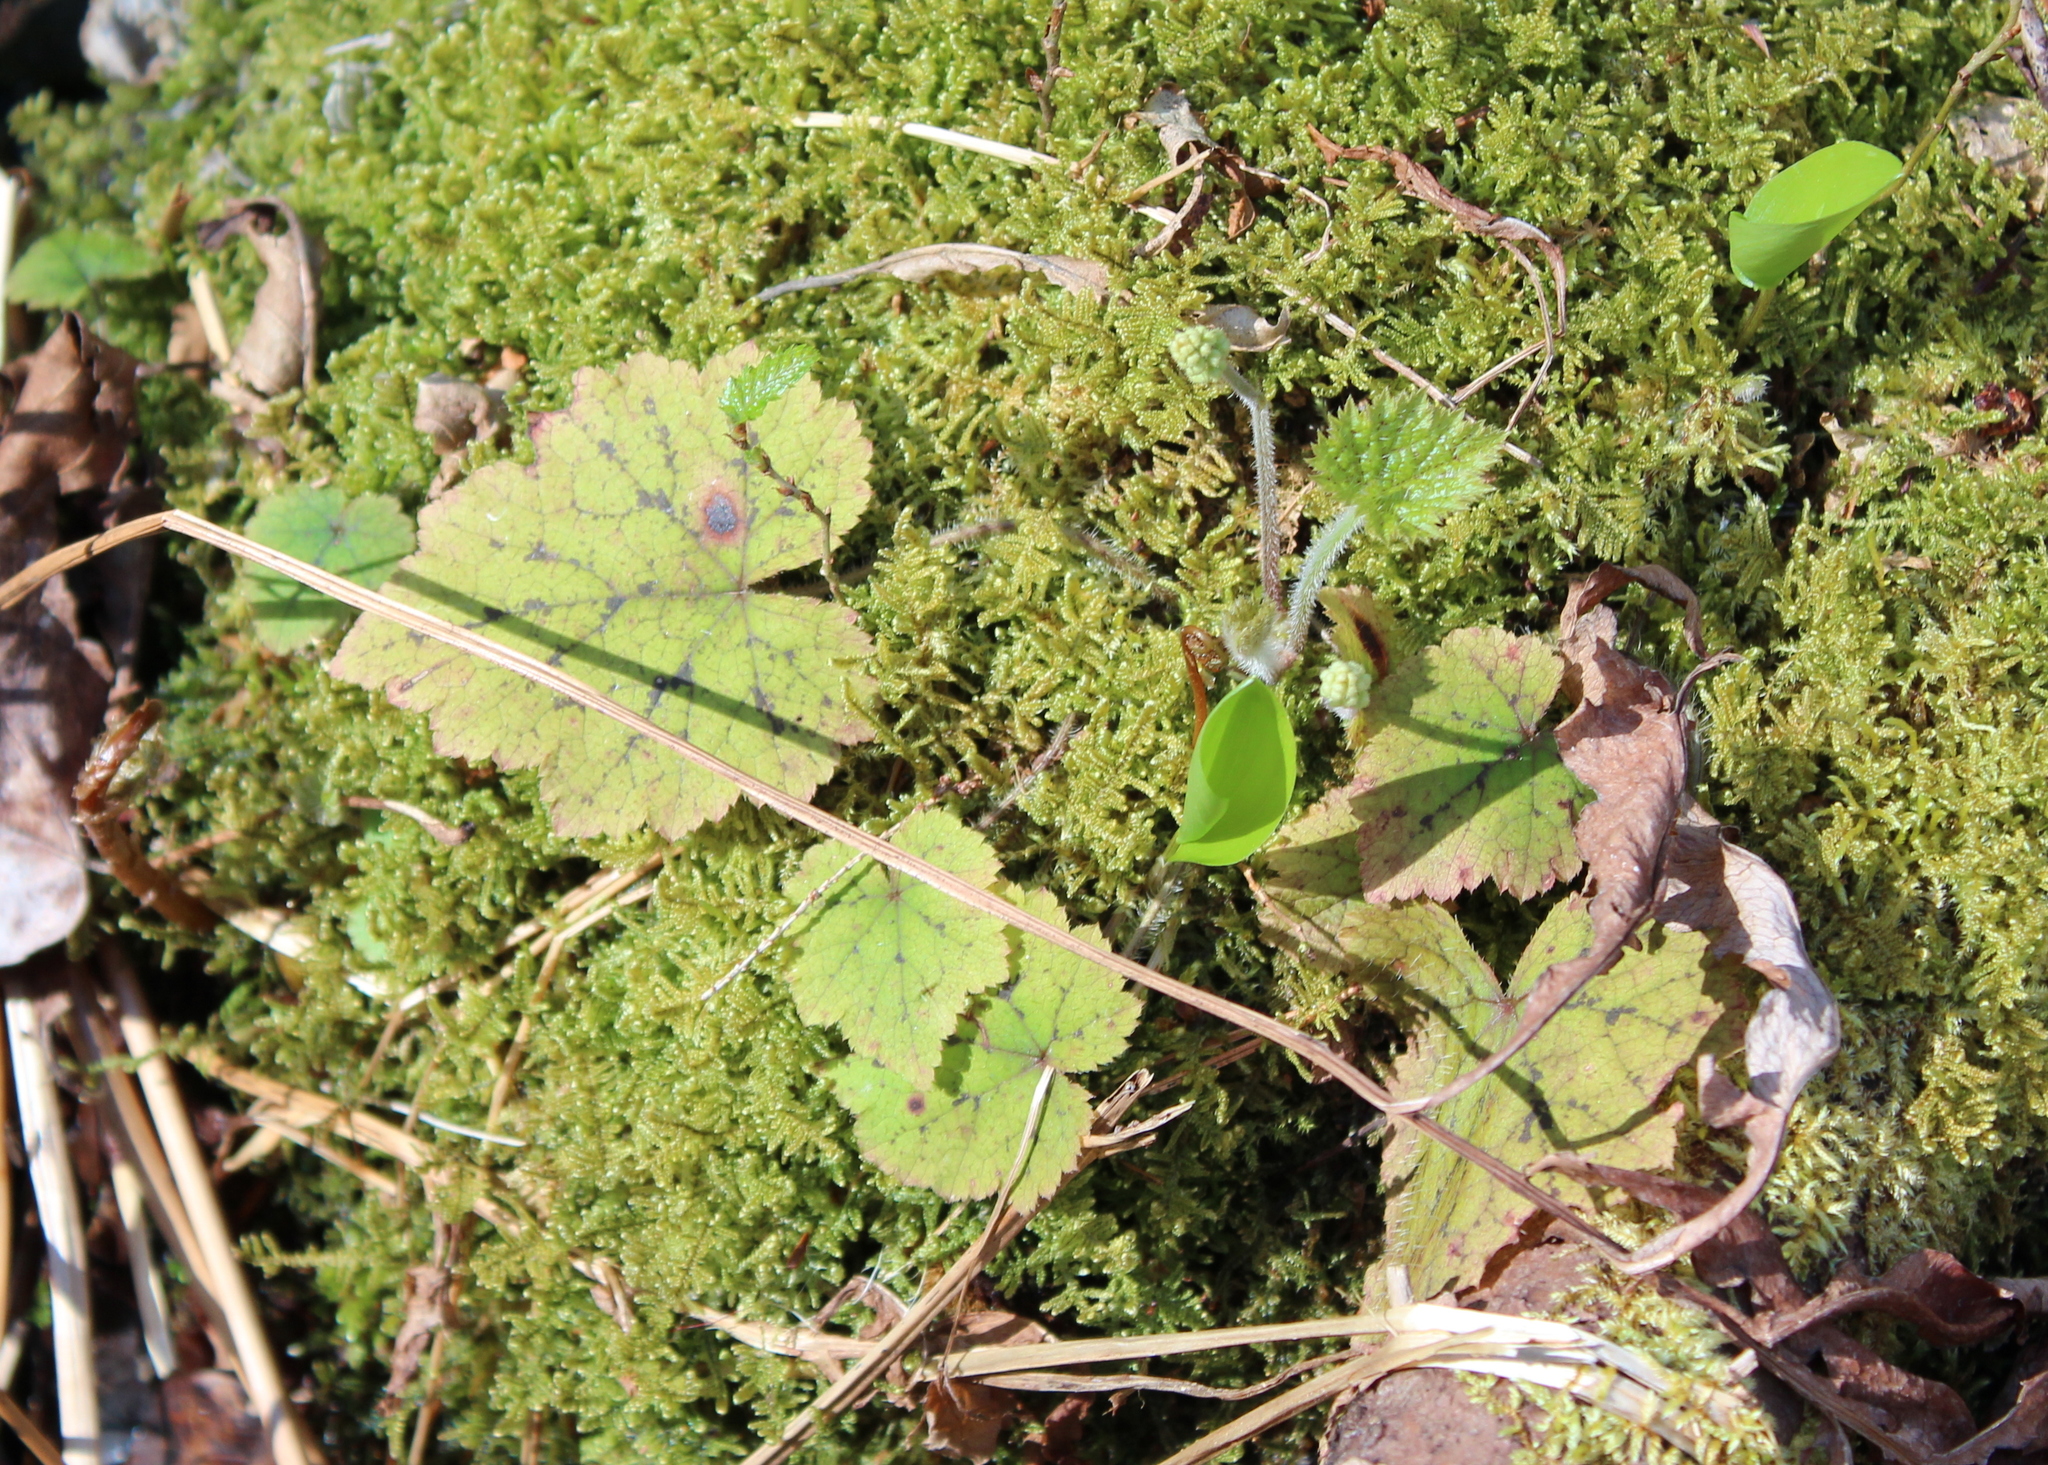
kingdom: Plantae
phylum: Tracheophyta
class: Magnoliopsida
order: Saxifragales
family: Saxifragaceae
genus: Tiarella
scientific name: Tiarella stolonifera
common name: Stoloniferous foamflower
